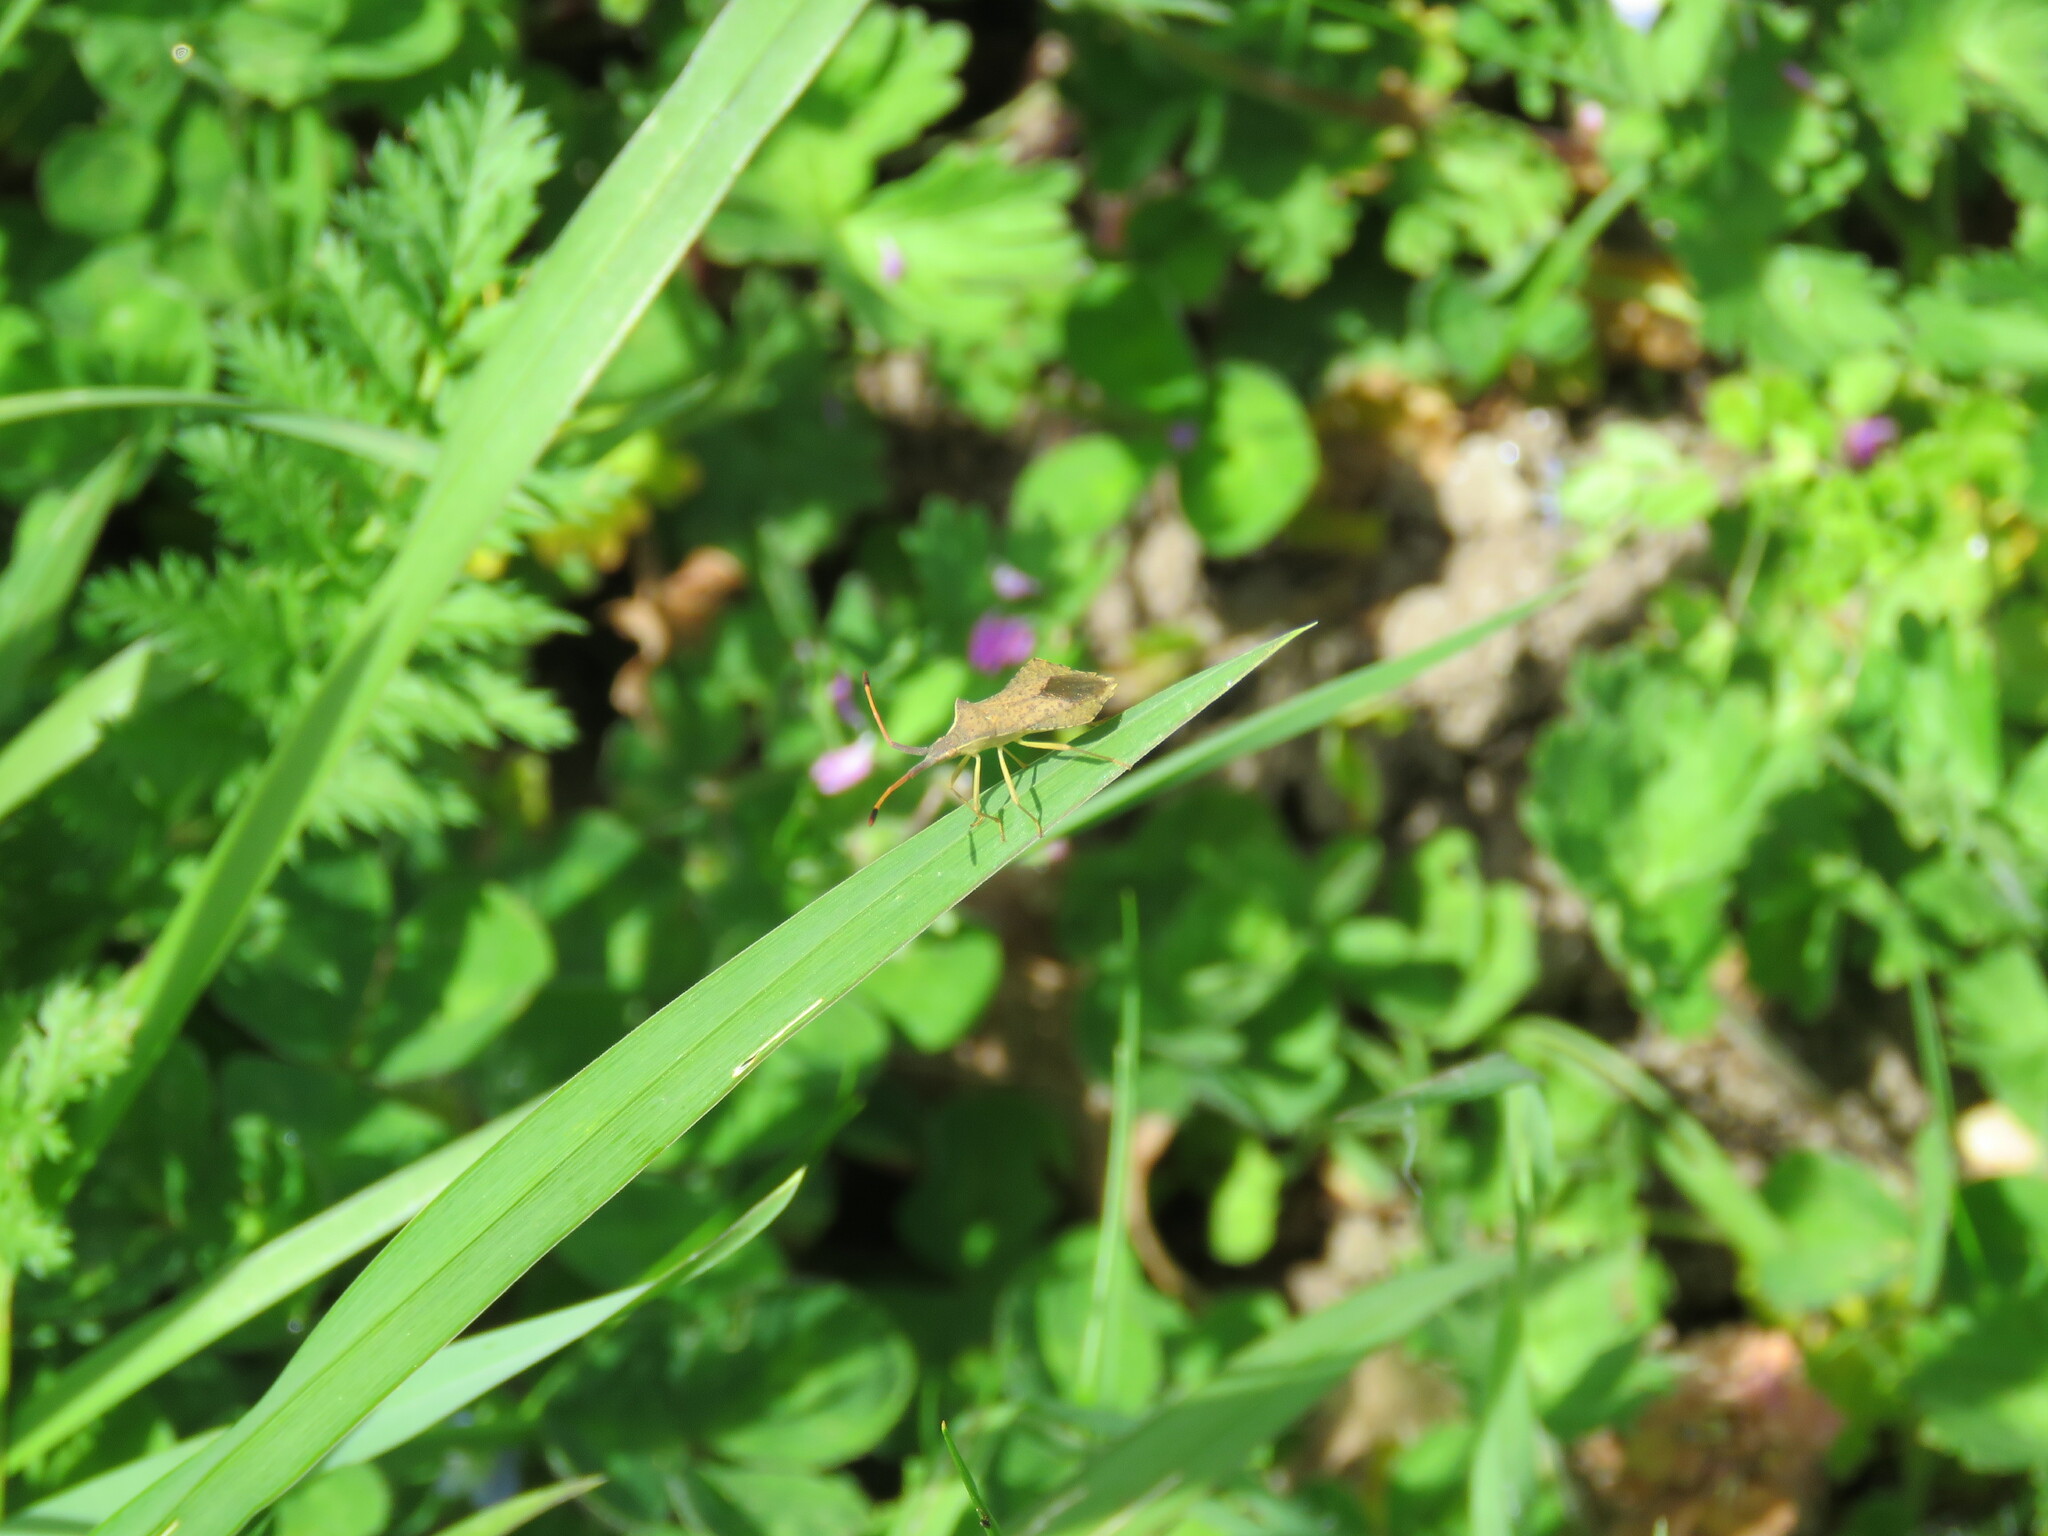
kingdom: Animalia
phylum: Arthropoda
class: Insecta
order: Hemiptera
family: Coreidae
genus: Syromastus
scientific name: Syromastus rhombeus
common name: Rhombic leatherbug
